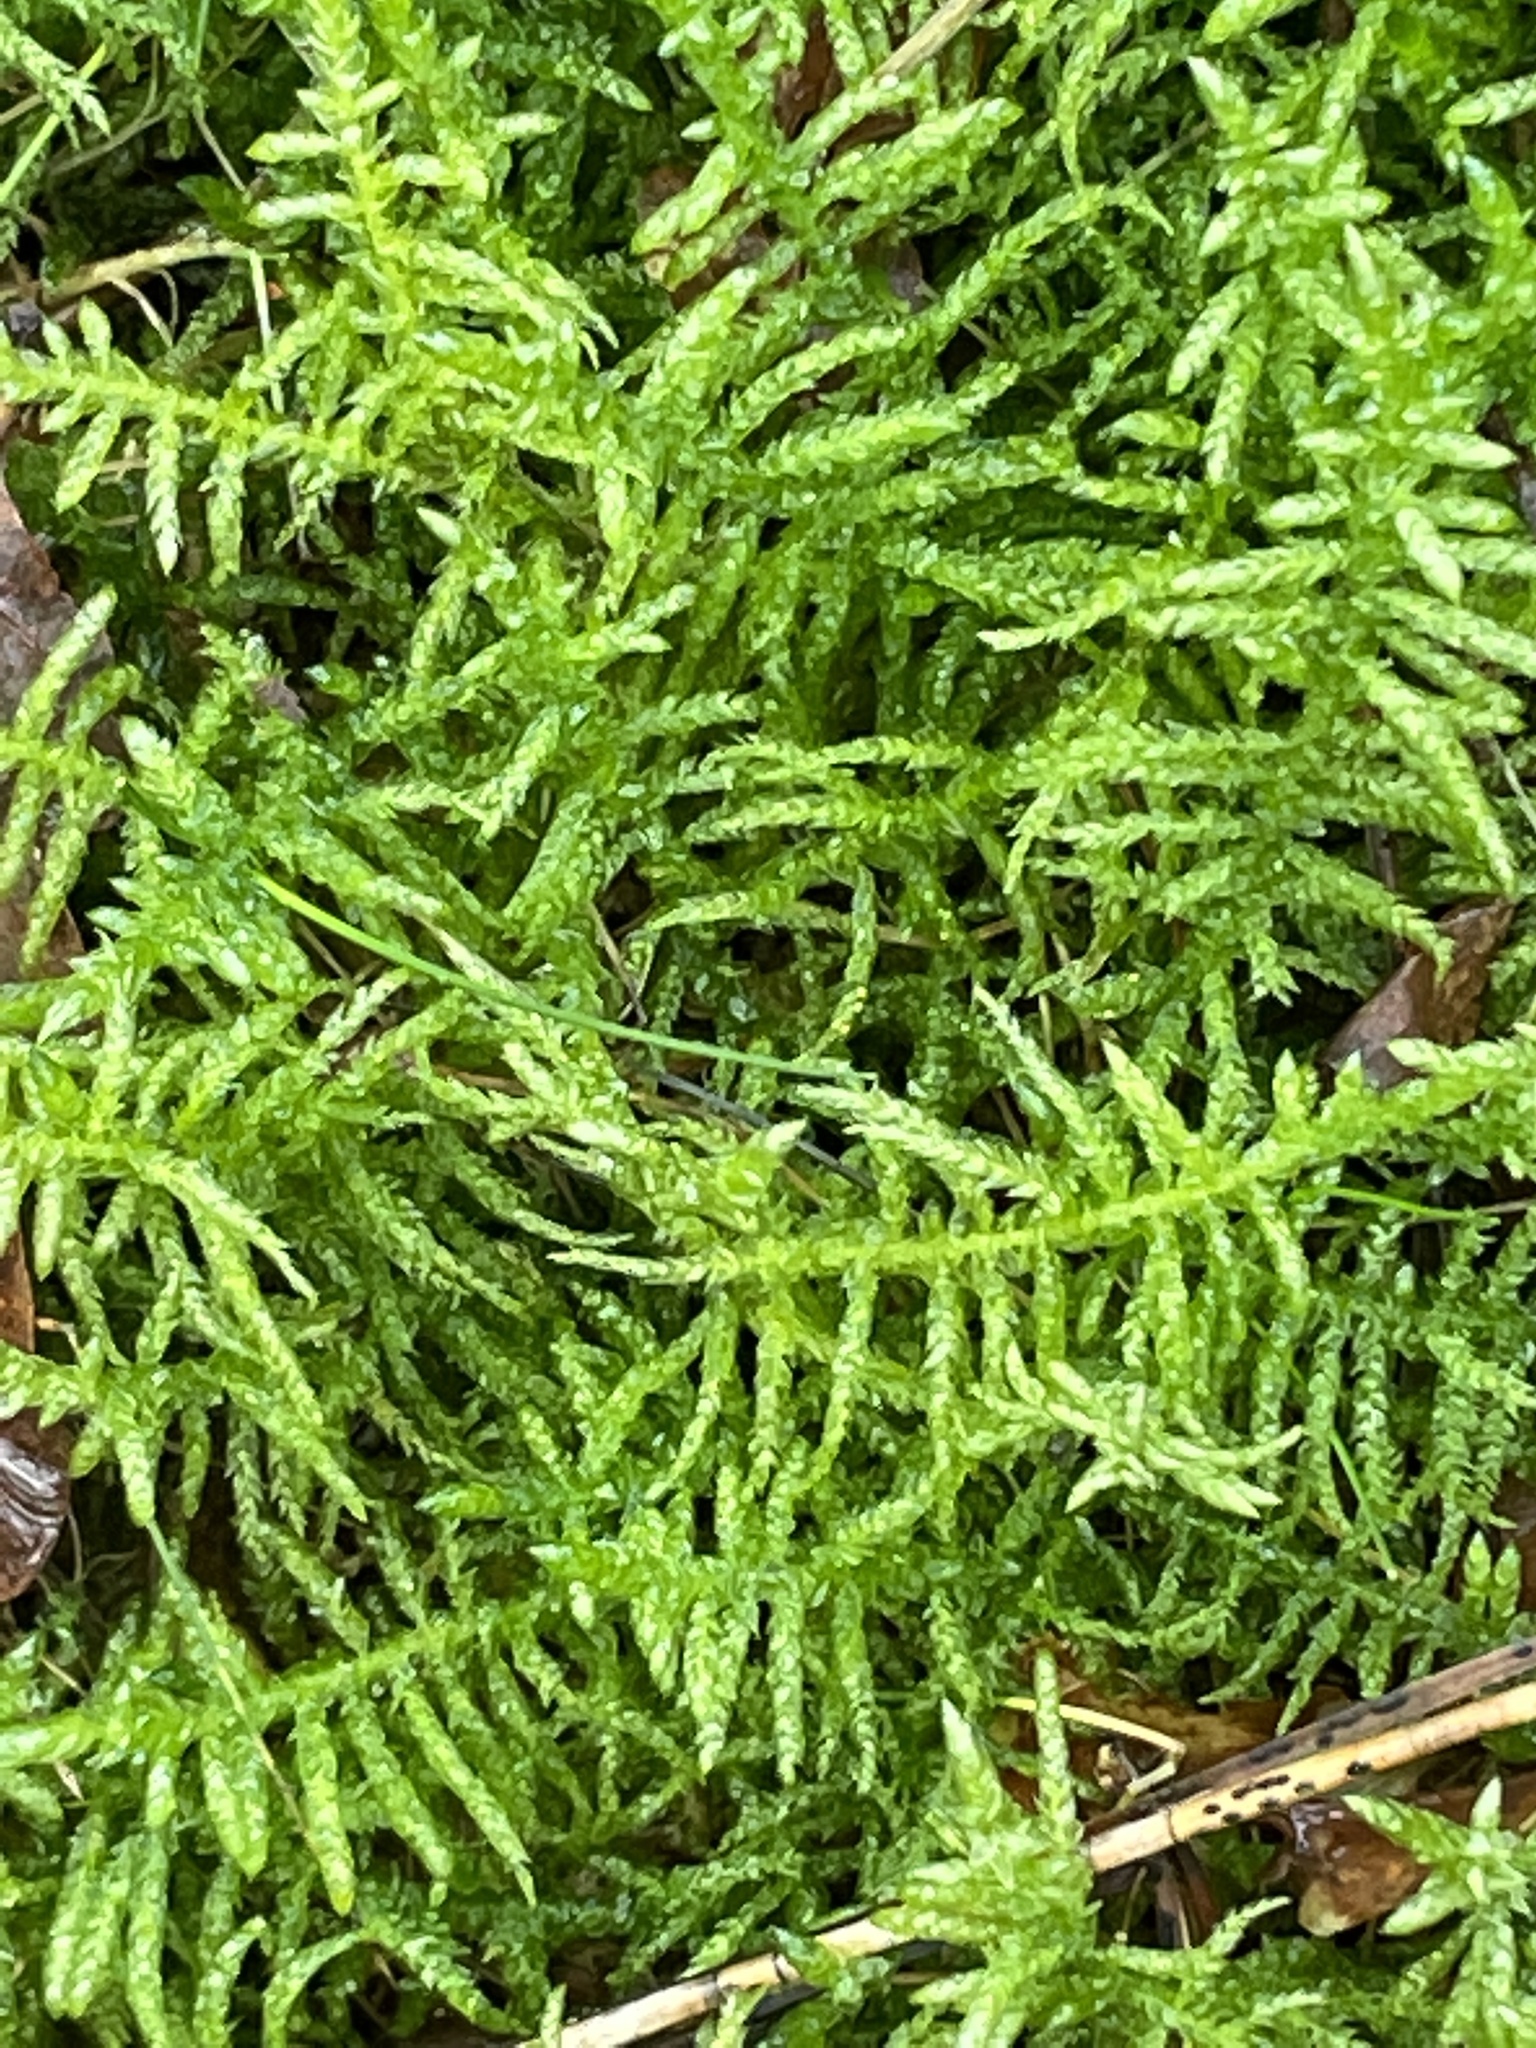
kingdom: Plantae
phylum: Bryophyta
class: Bryopsida
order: Hypnales
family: Brachytheciaceae
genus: Pseudoscleropodium
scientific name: Pseudoscleropodium purum
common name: Neat feather-moss
